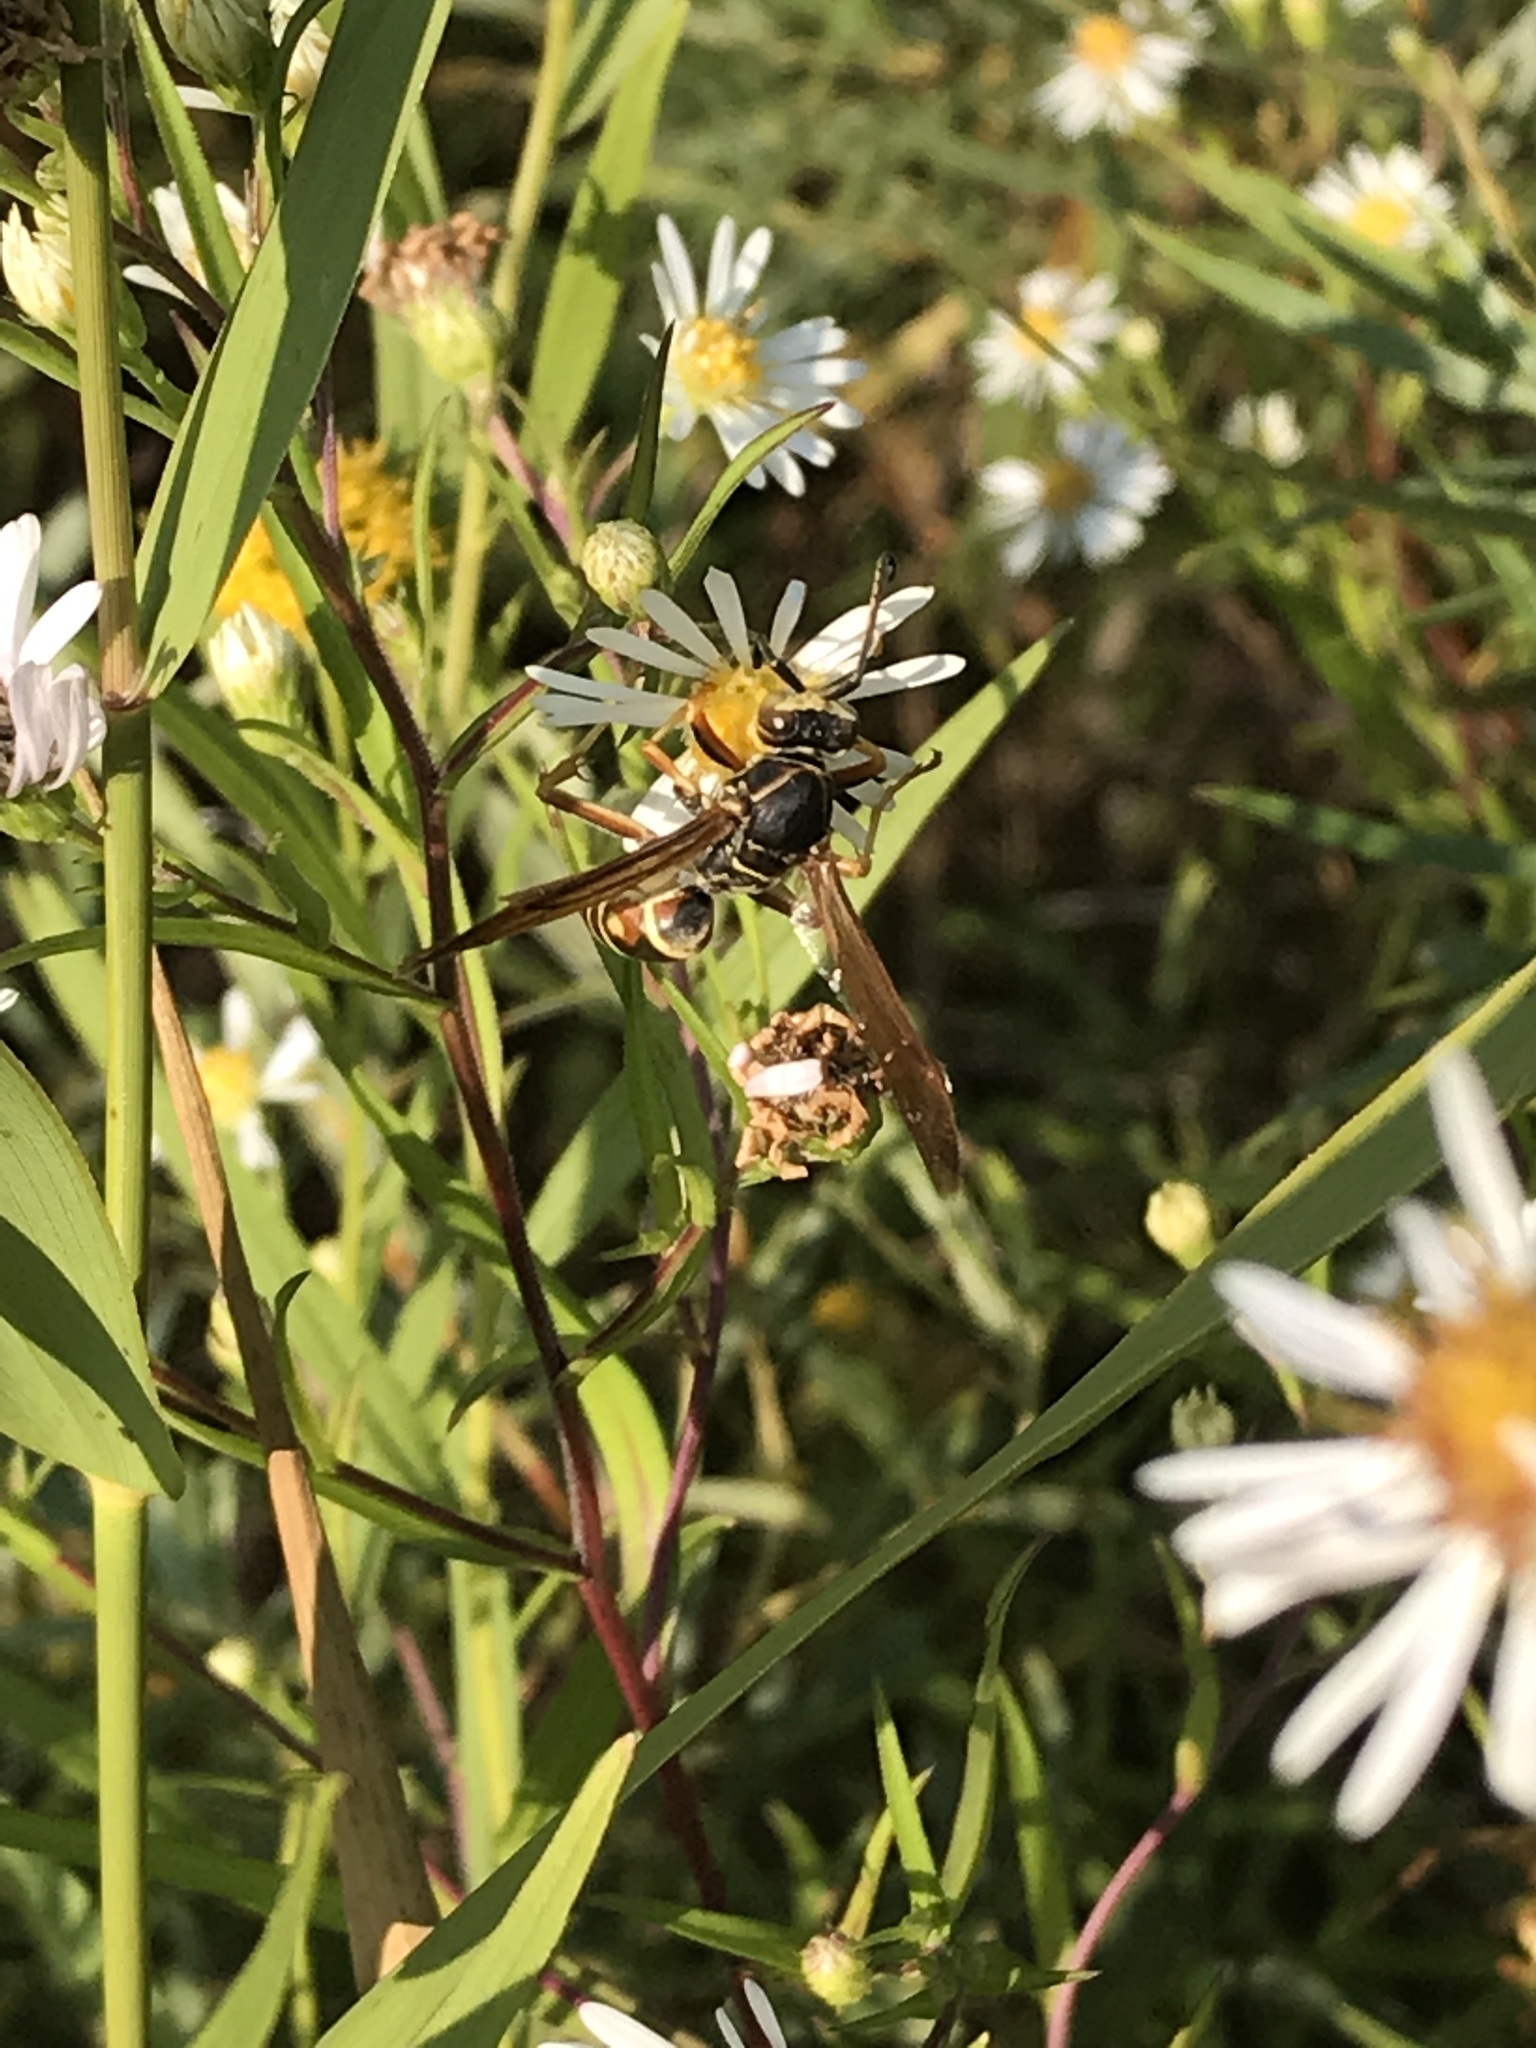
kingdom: Animalia
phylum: Arthropoda
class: Insecta
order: Hymenoptera
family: Eumenidae
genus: Polistes
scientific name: Polistes fuscatus
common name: Dark paper wasp
